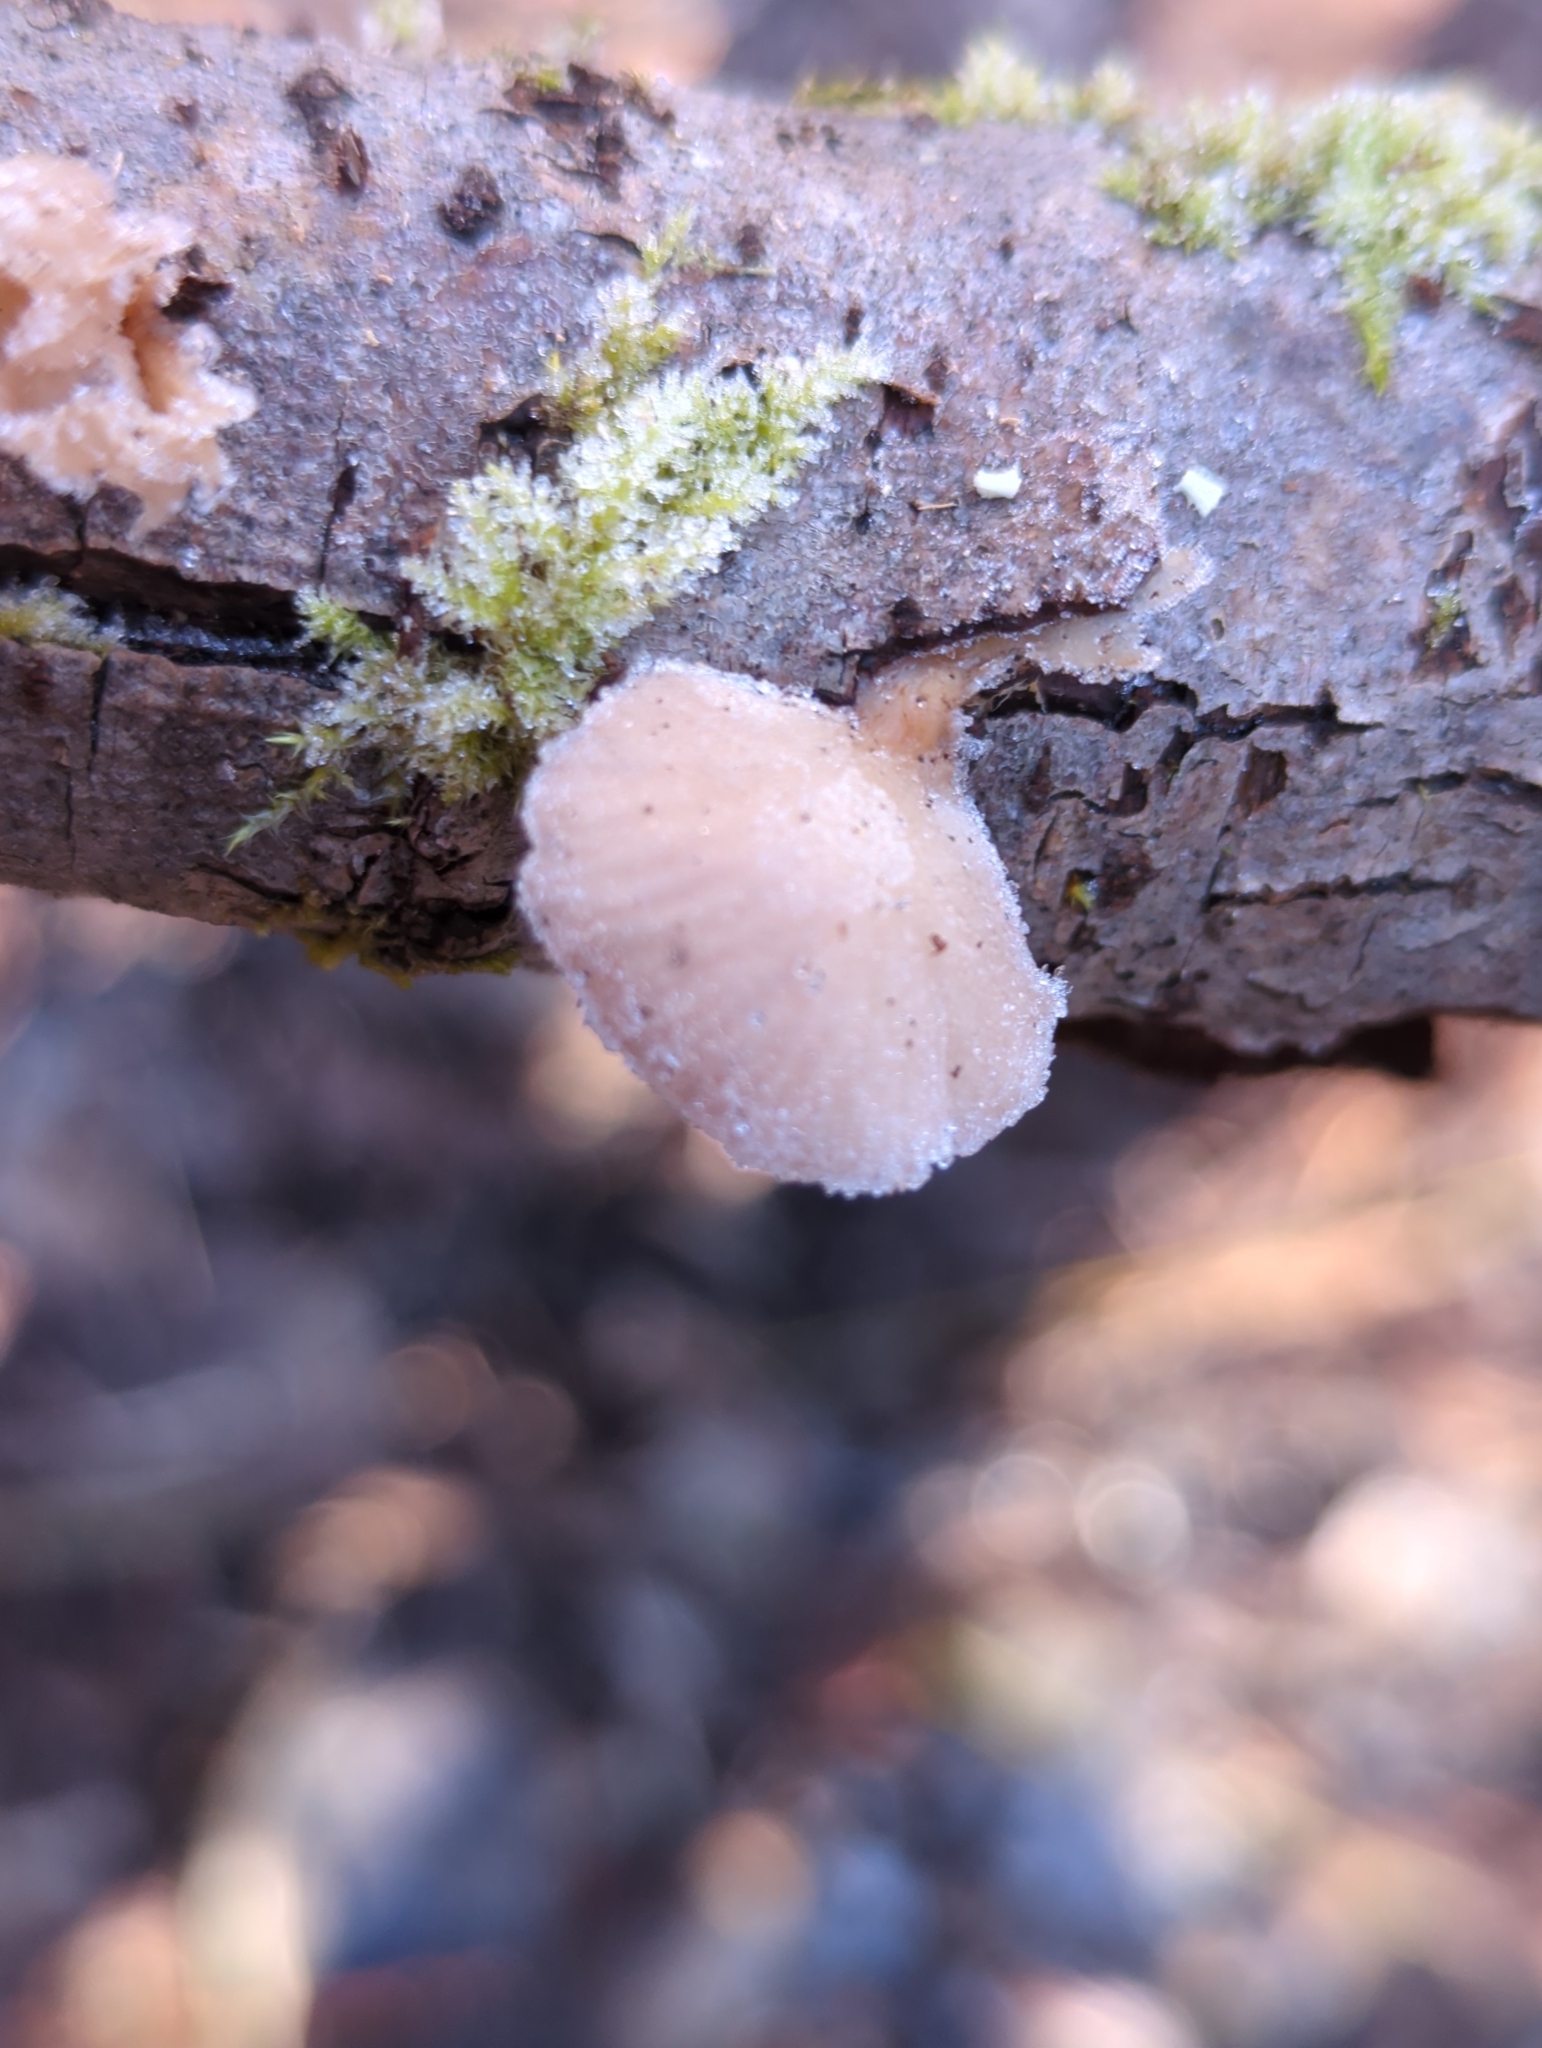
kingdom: Fungi
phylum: Basidiomycota
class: Agaricomycetes
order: Agaricales
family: Mycenaceae
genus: Panellus
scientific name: Panellus longinquus
